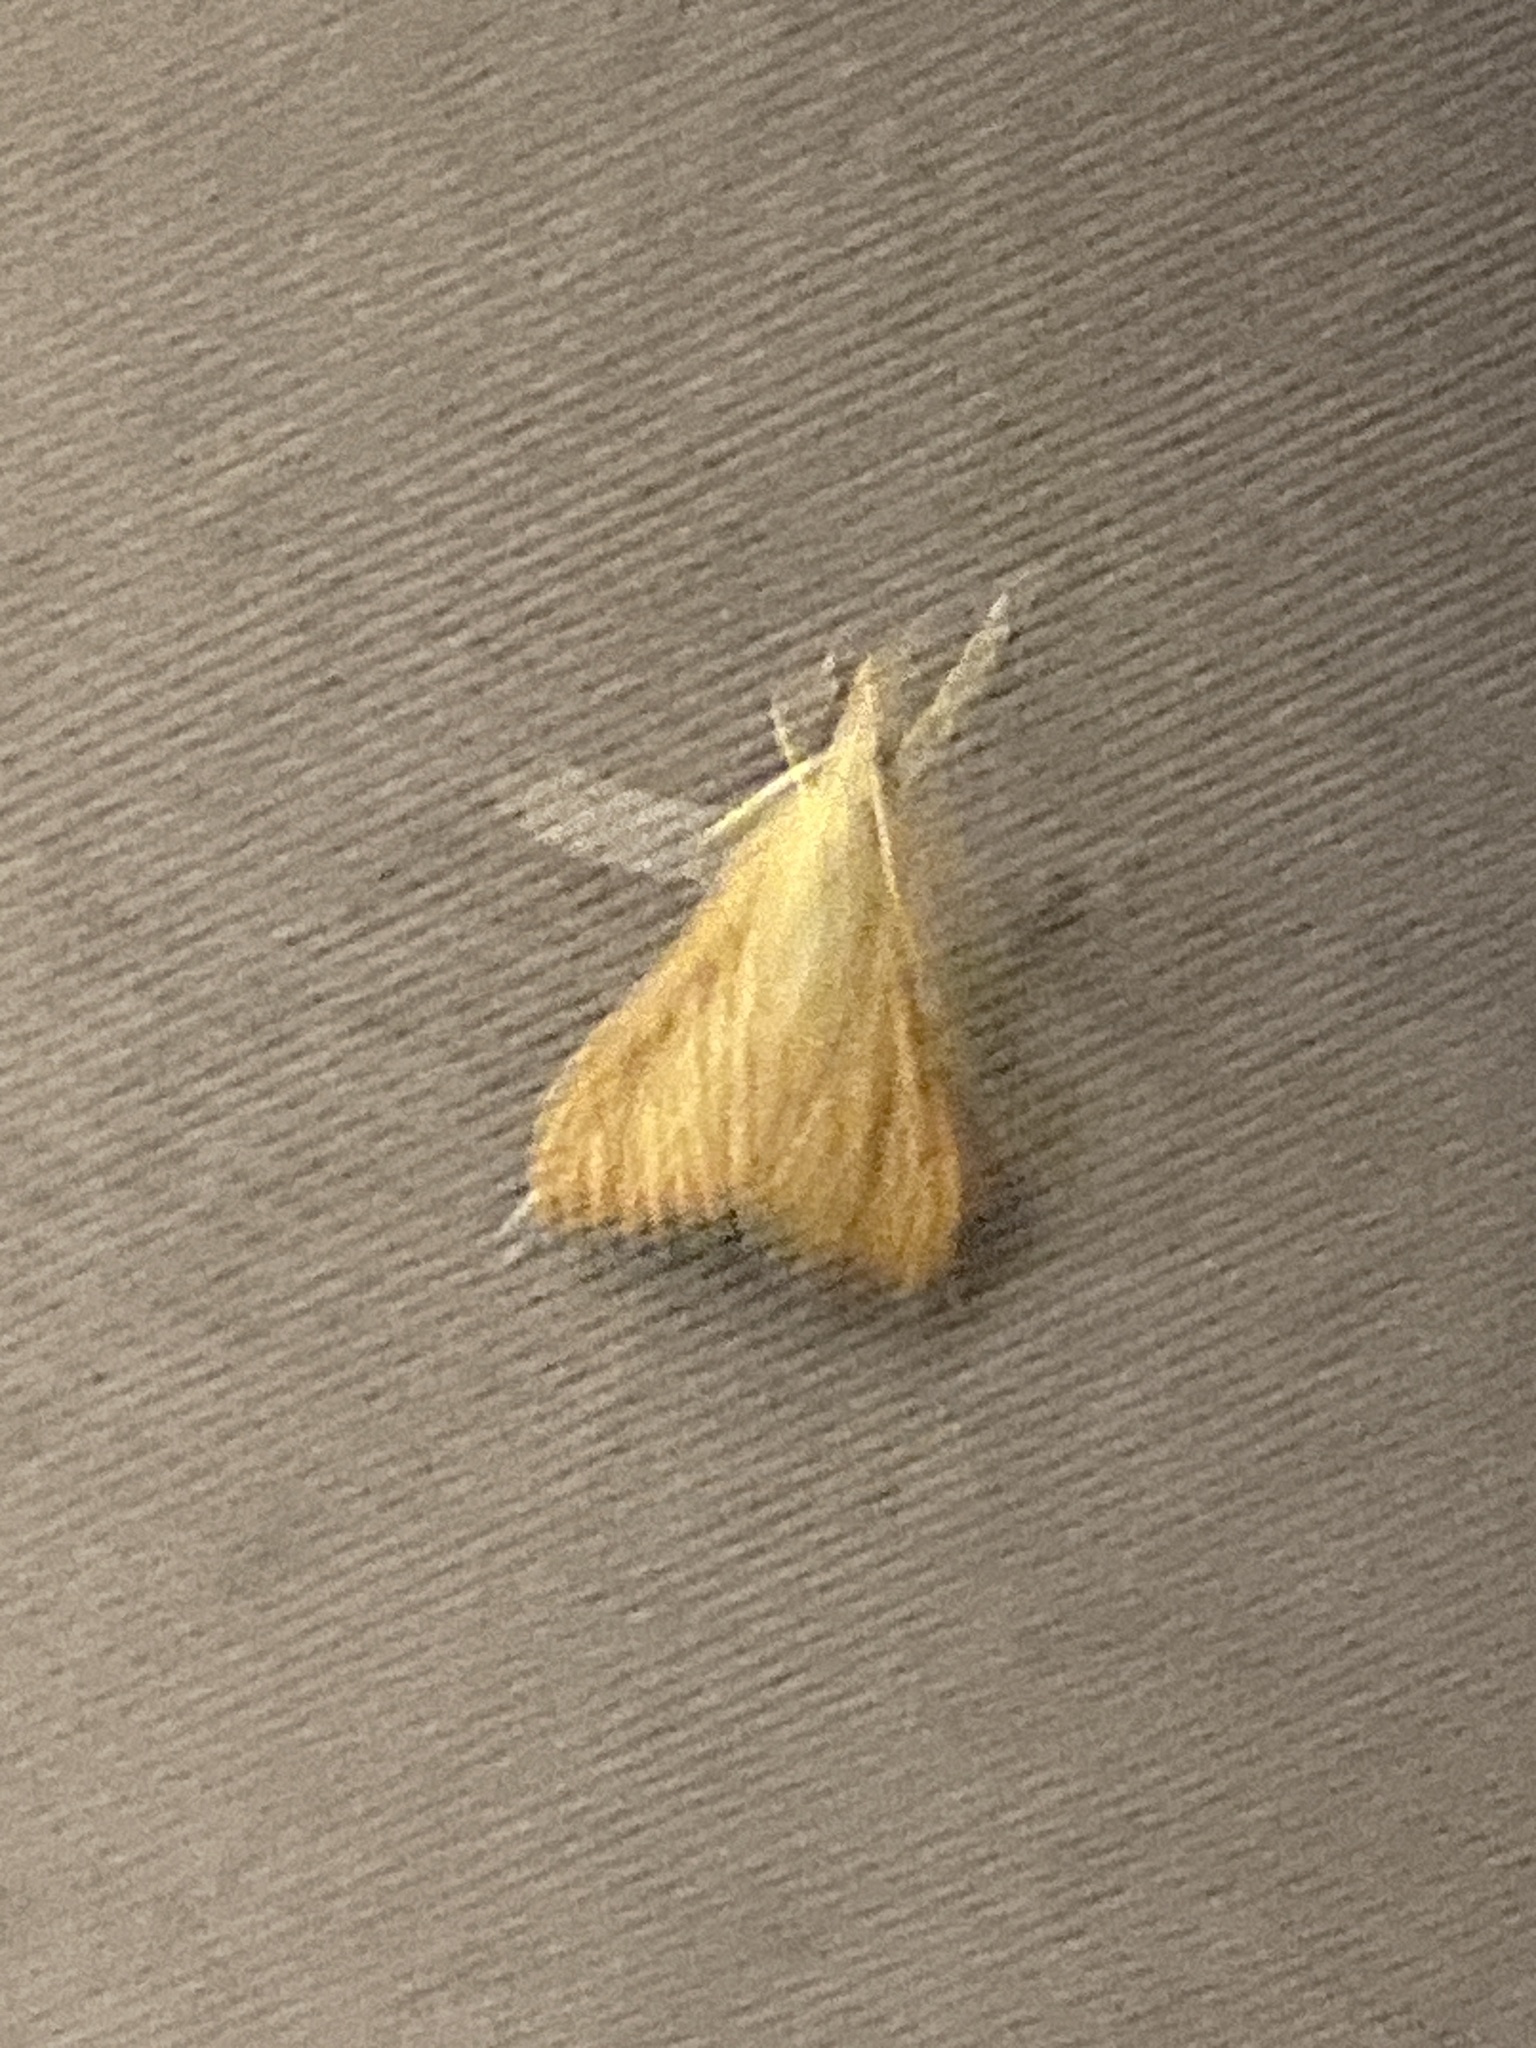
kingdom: Animalia
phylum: Arthropoda
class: Insecta
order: Lepidoptera
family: Crambidae
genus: Antigastra
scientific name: Antigastra catalaunalis
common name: Spanish dot
